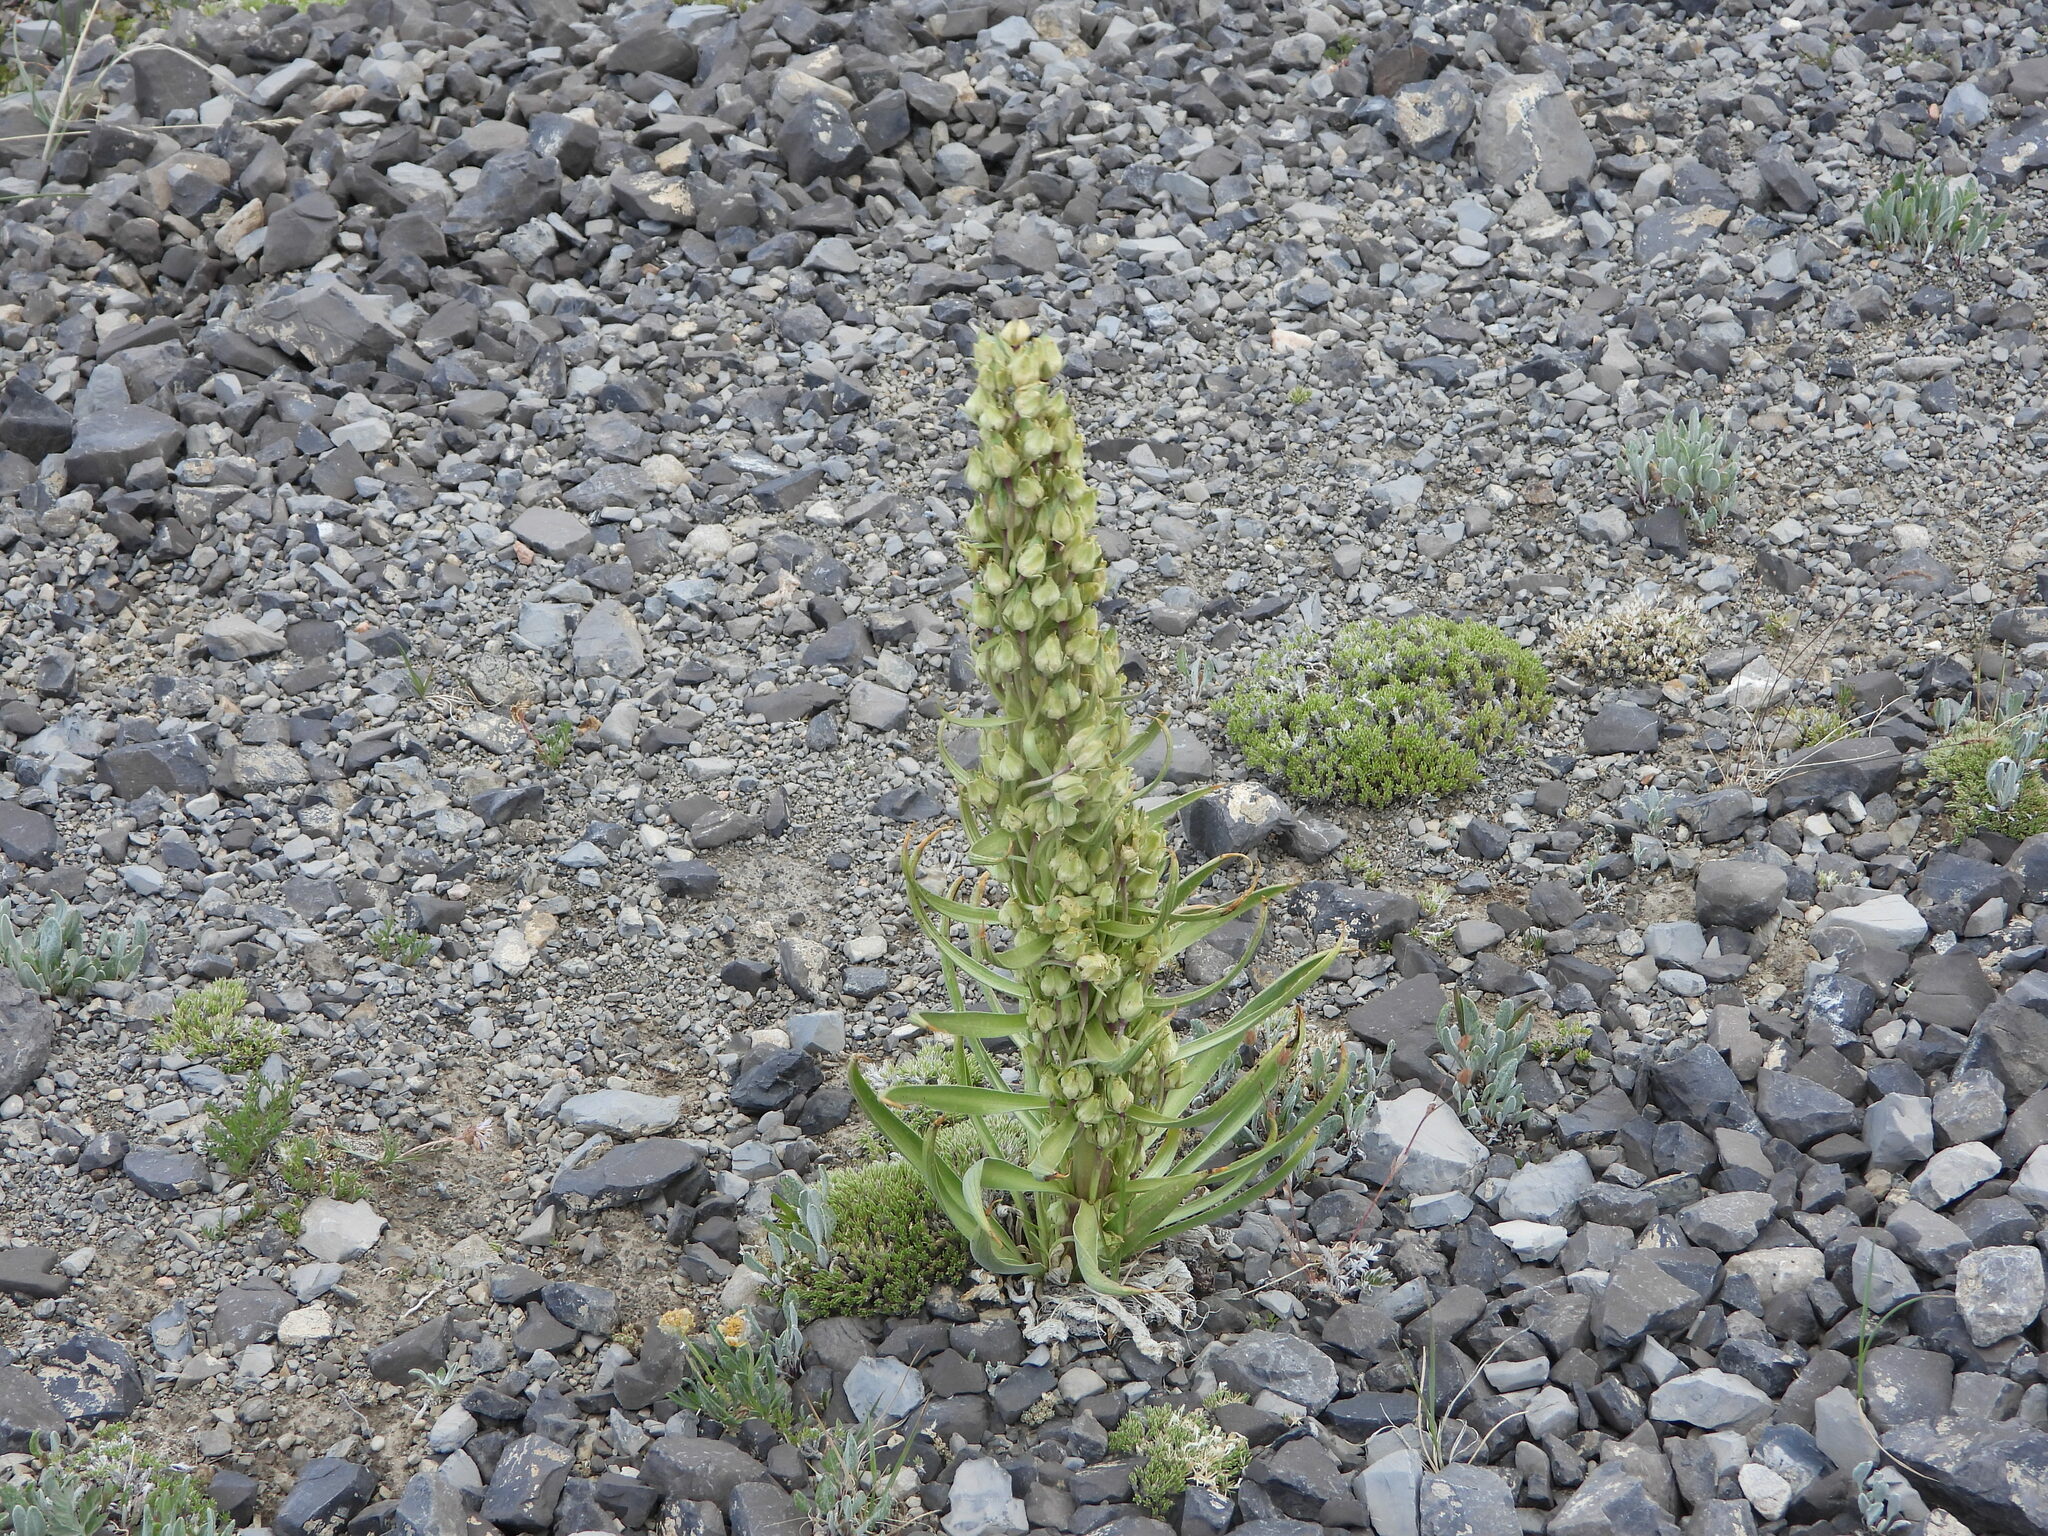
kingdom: Plantae
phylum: Tracheophyta
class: Magnoliopsida
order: Gentianales
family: Gentianaceae
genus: Frasera
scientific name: Frasera speciosa
